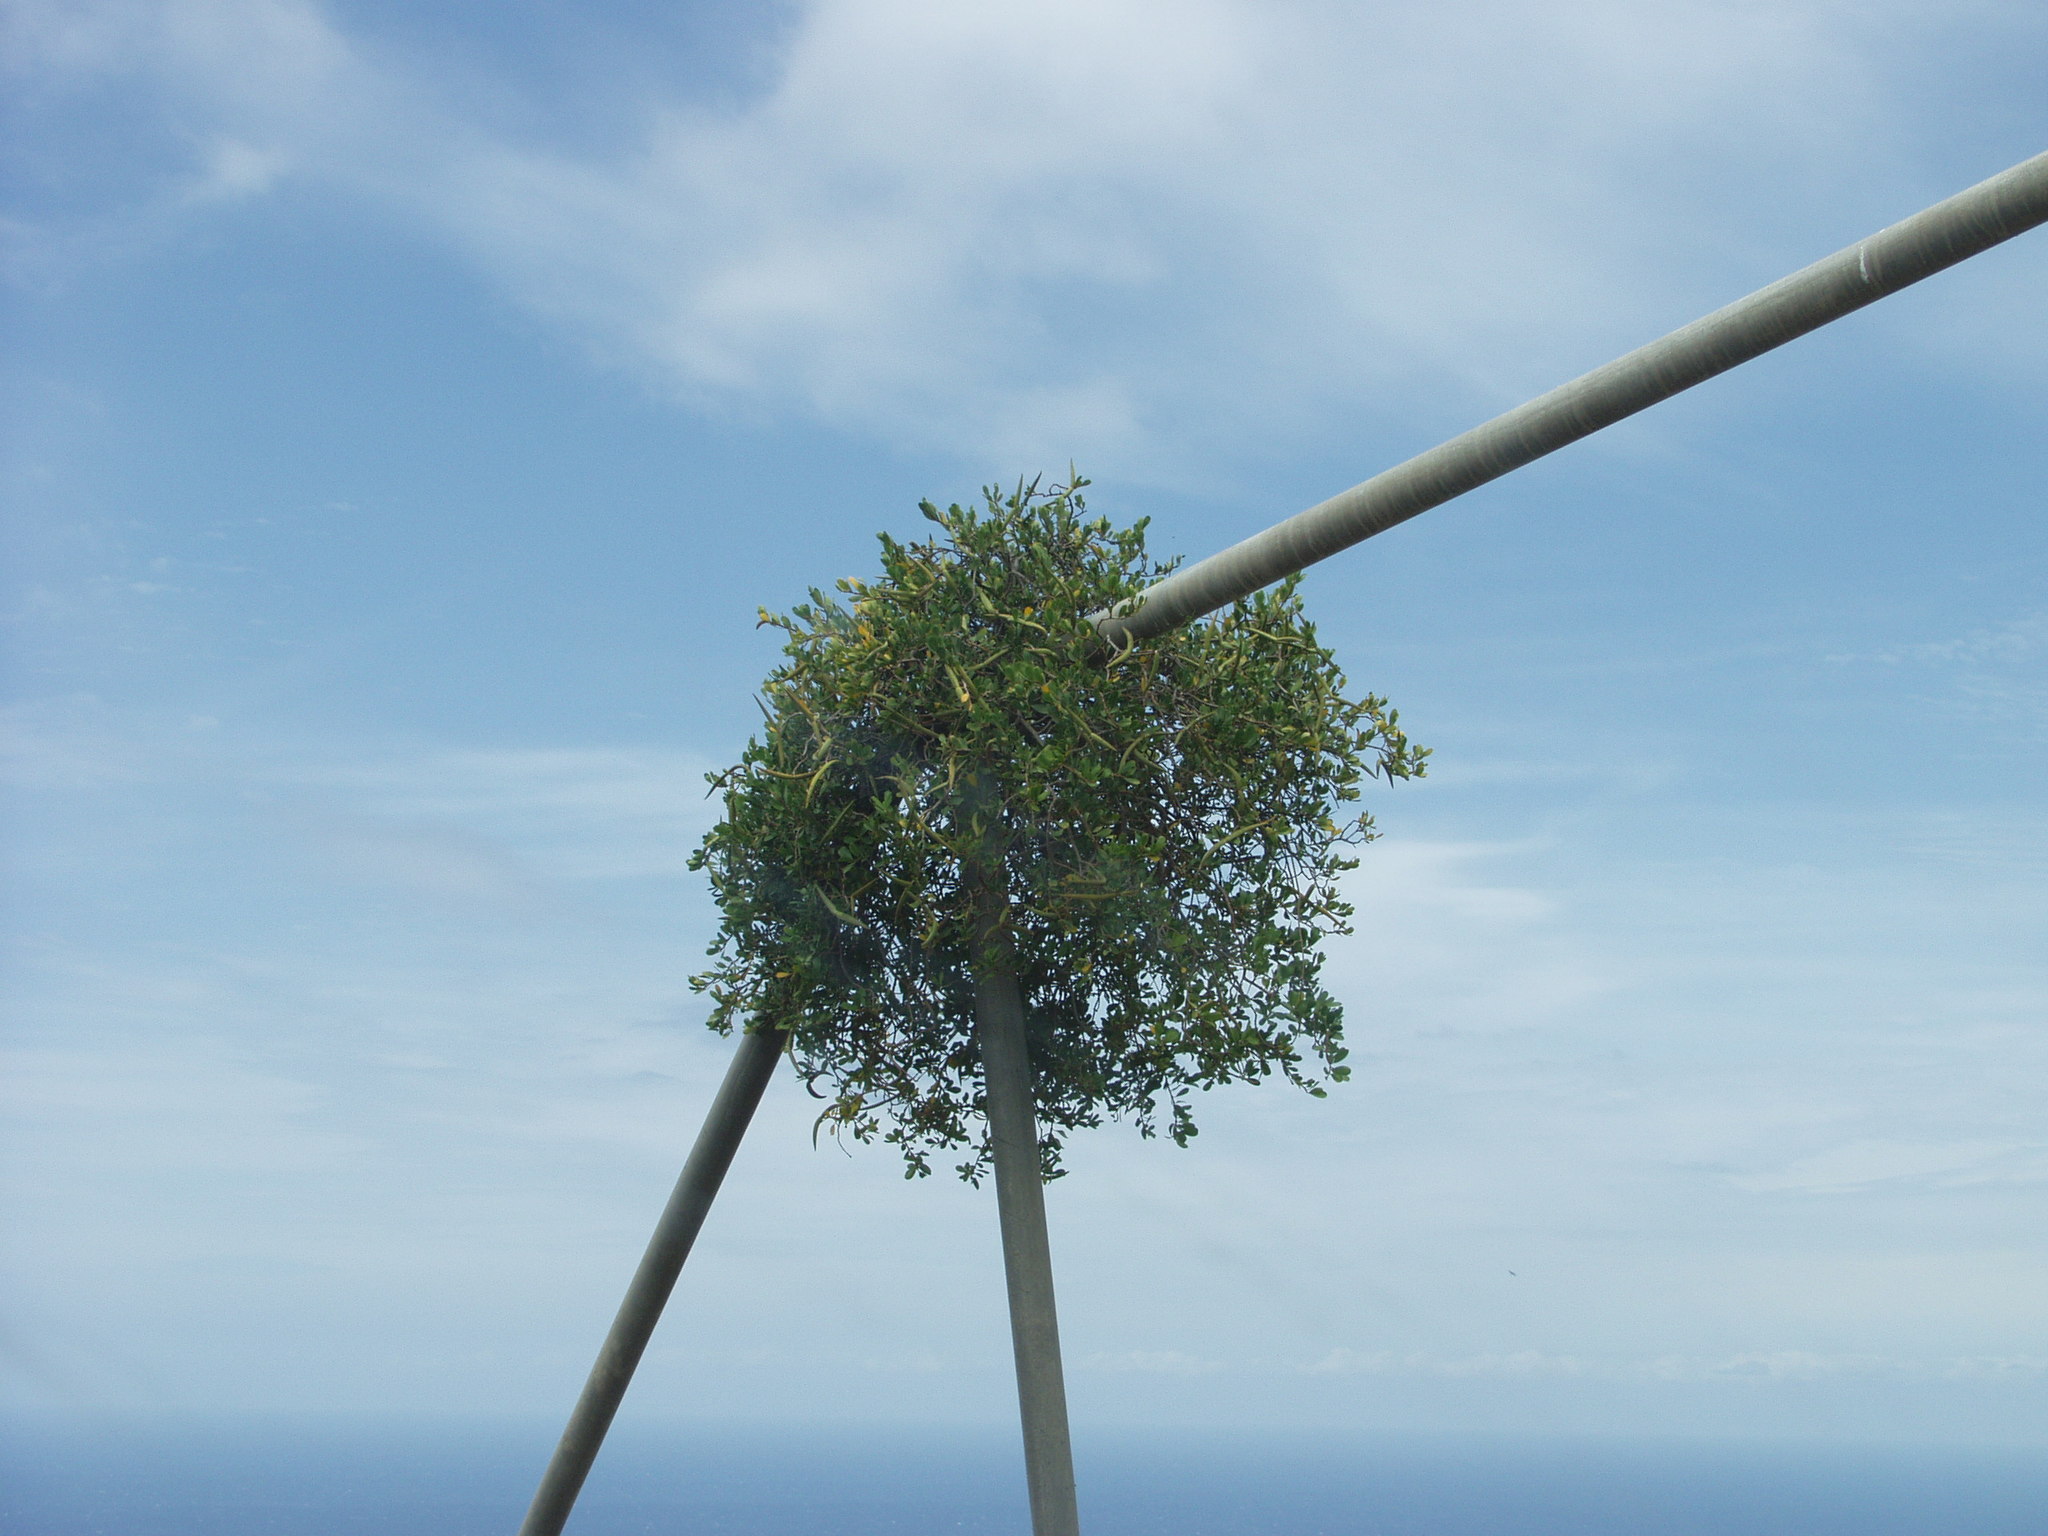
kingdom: Plantae
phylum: Tracheophyta
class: Magnoliopsida
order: Gentianales
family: Apocynaceae
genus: Periploca
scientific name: Periploca laevigata
